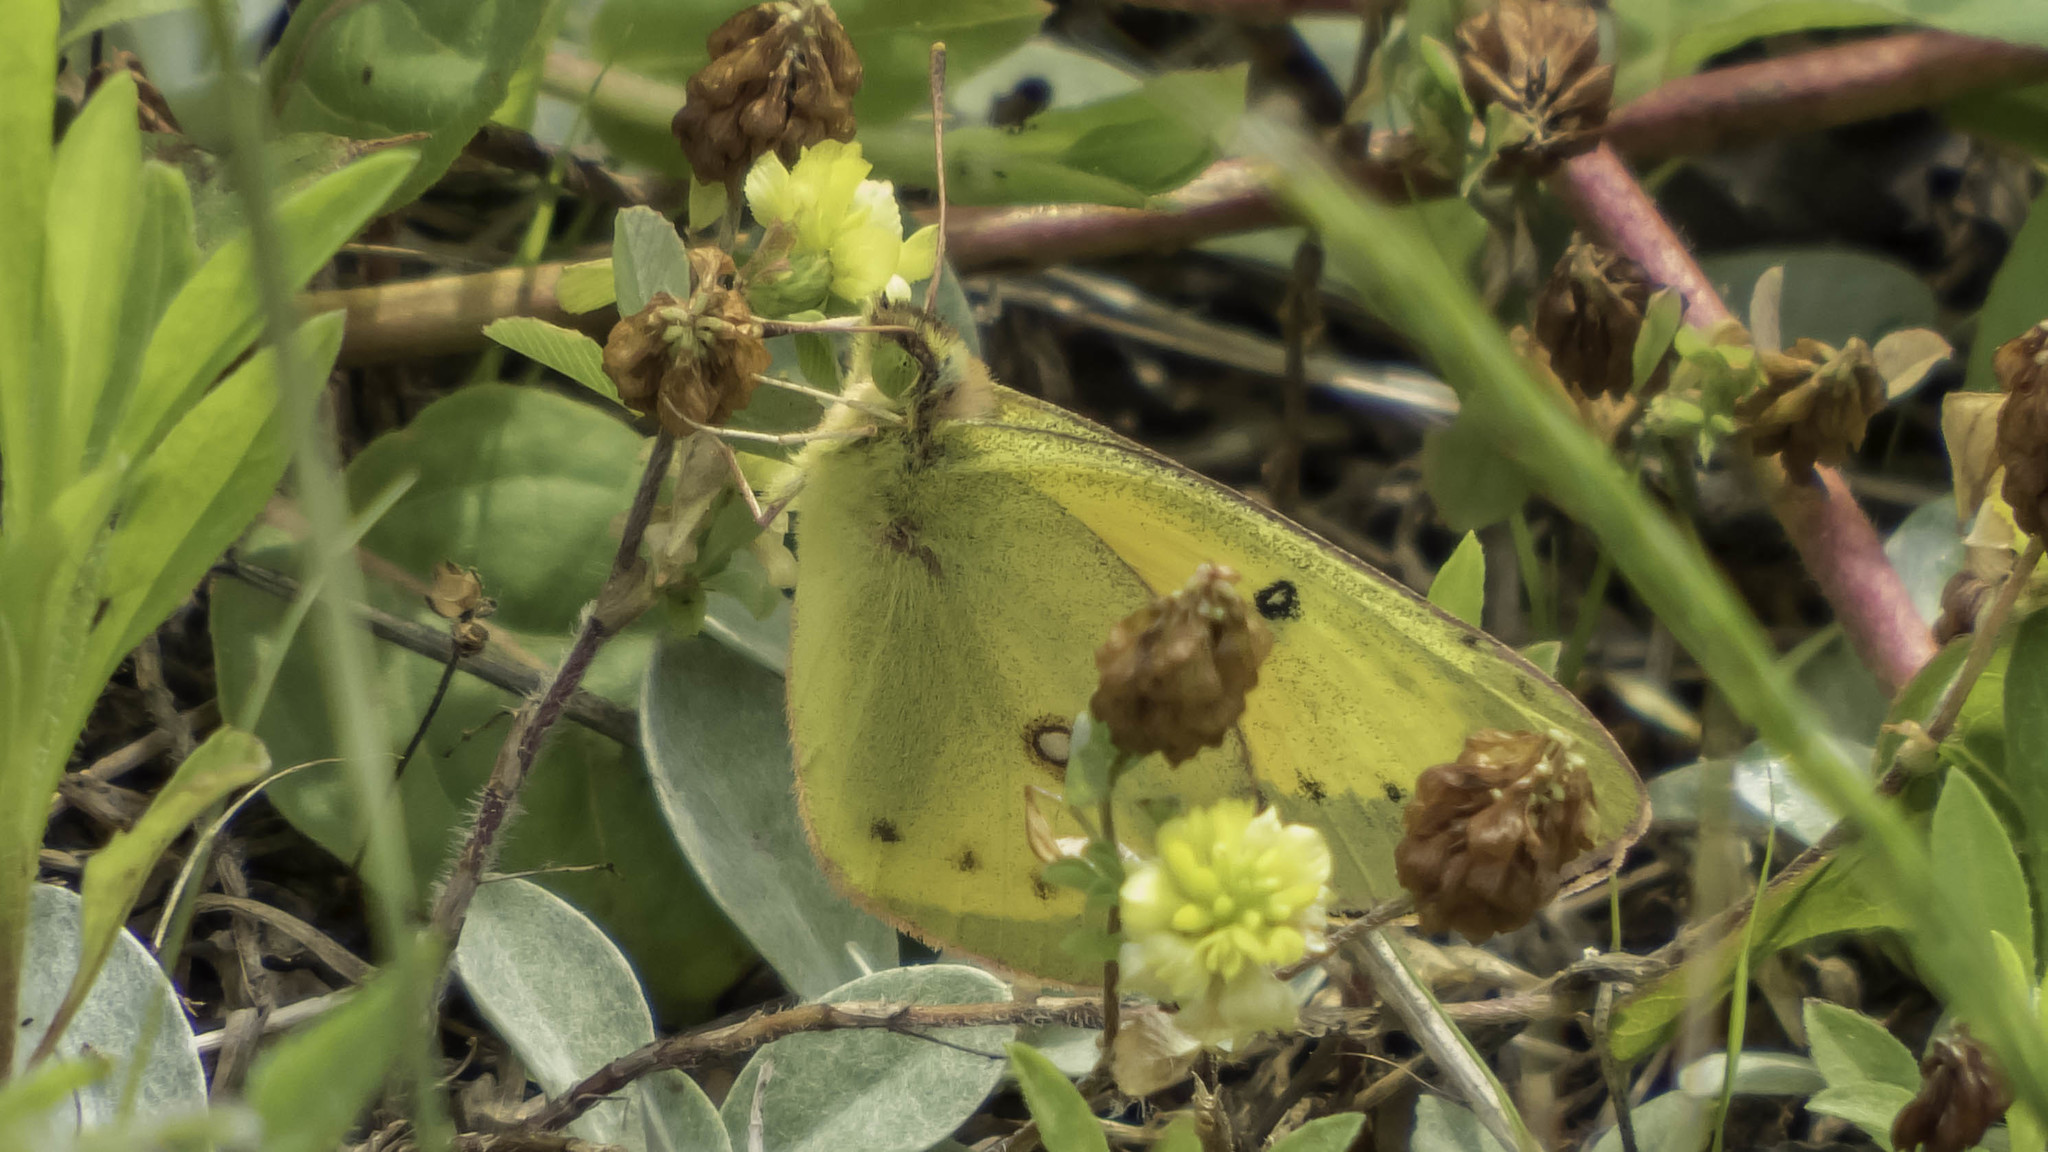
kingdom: Animalia
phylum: Arthropoda
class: Insecta
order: Lepidoptera
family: Pieridae
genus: Colias
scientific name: Colias eurytheme
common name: Alfalfa butterfly
